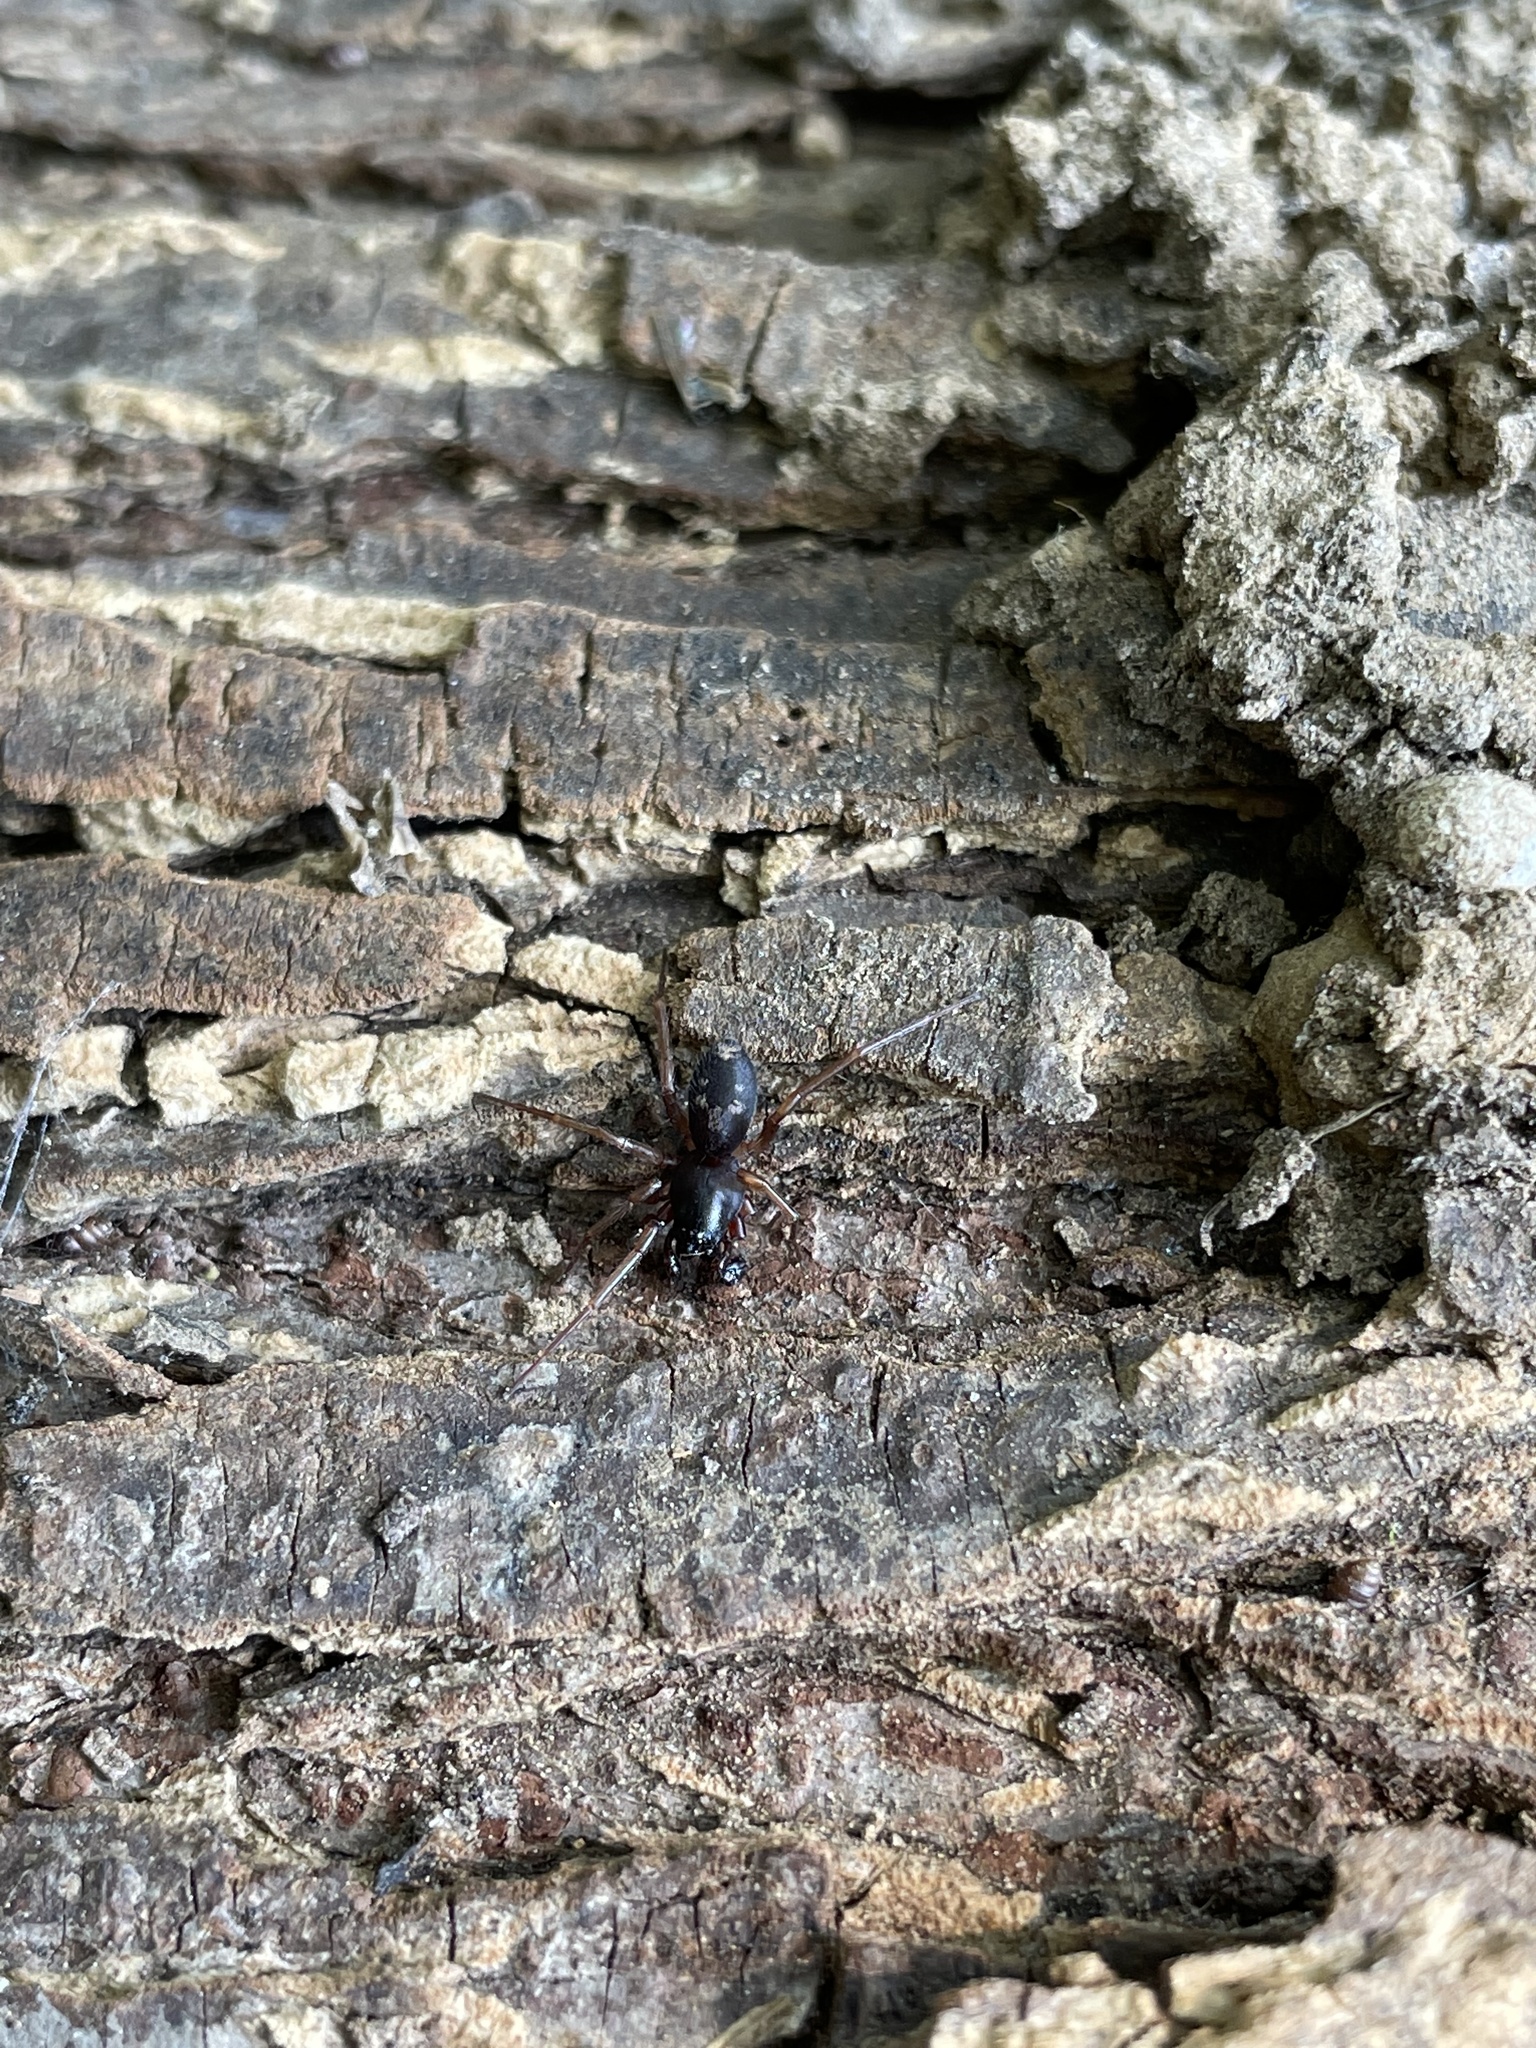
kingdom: Animalia
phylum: Arthropoda
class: Arachnida
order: Araneae
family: Corinnidae
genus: Falconina
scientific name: Falconina gracilis
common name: Antmimic spider
